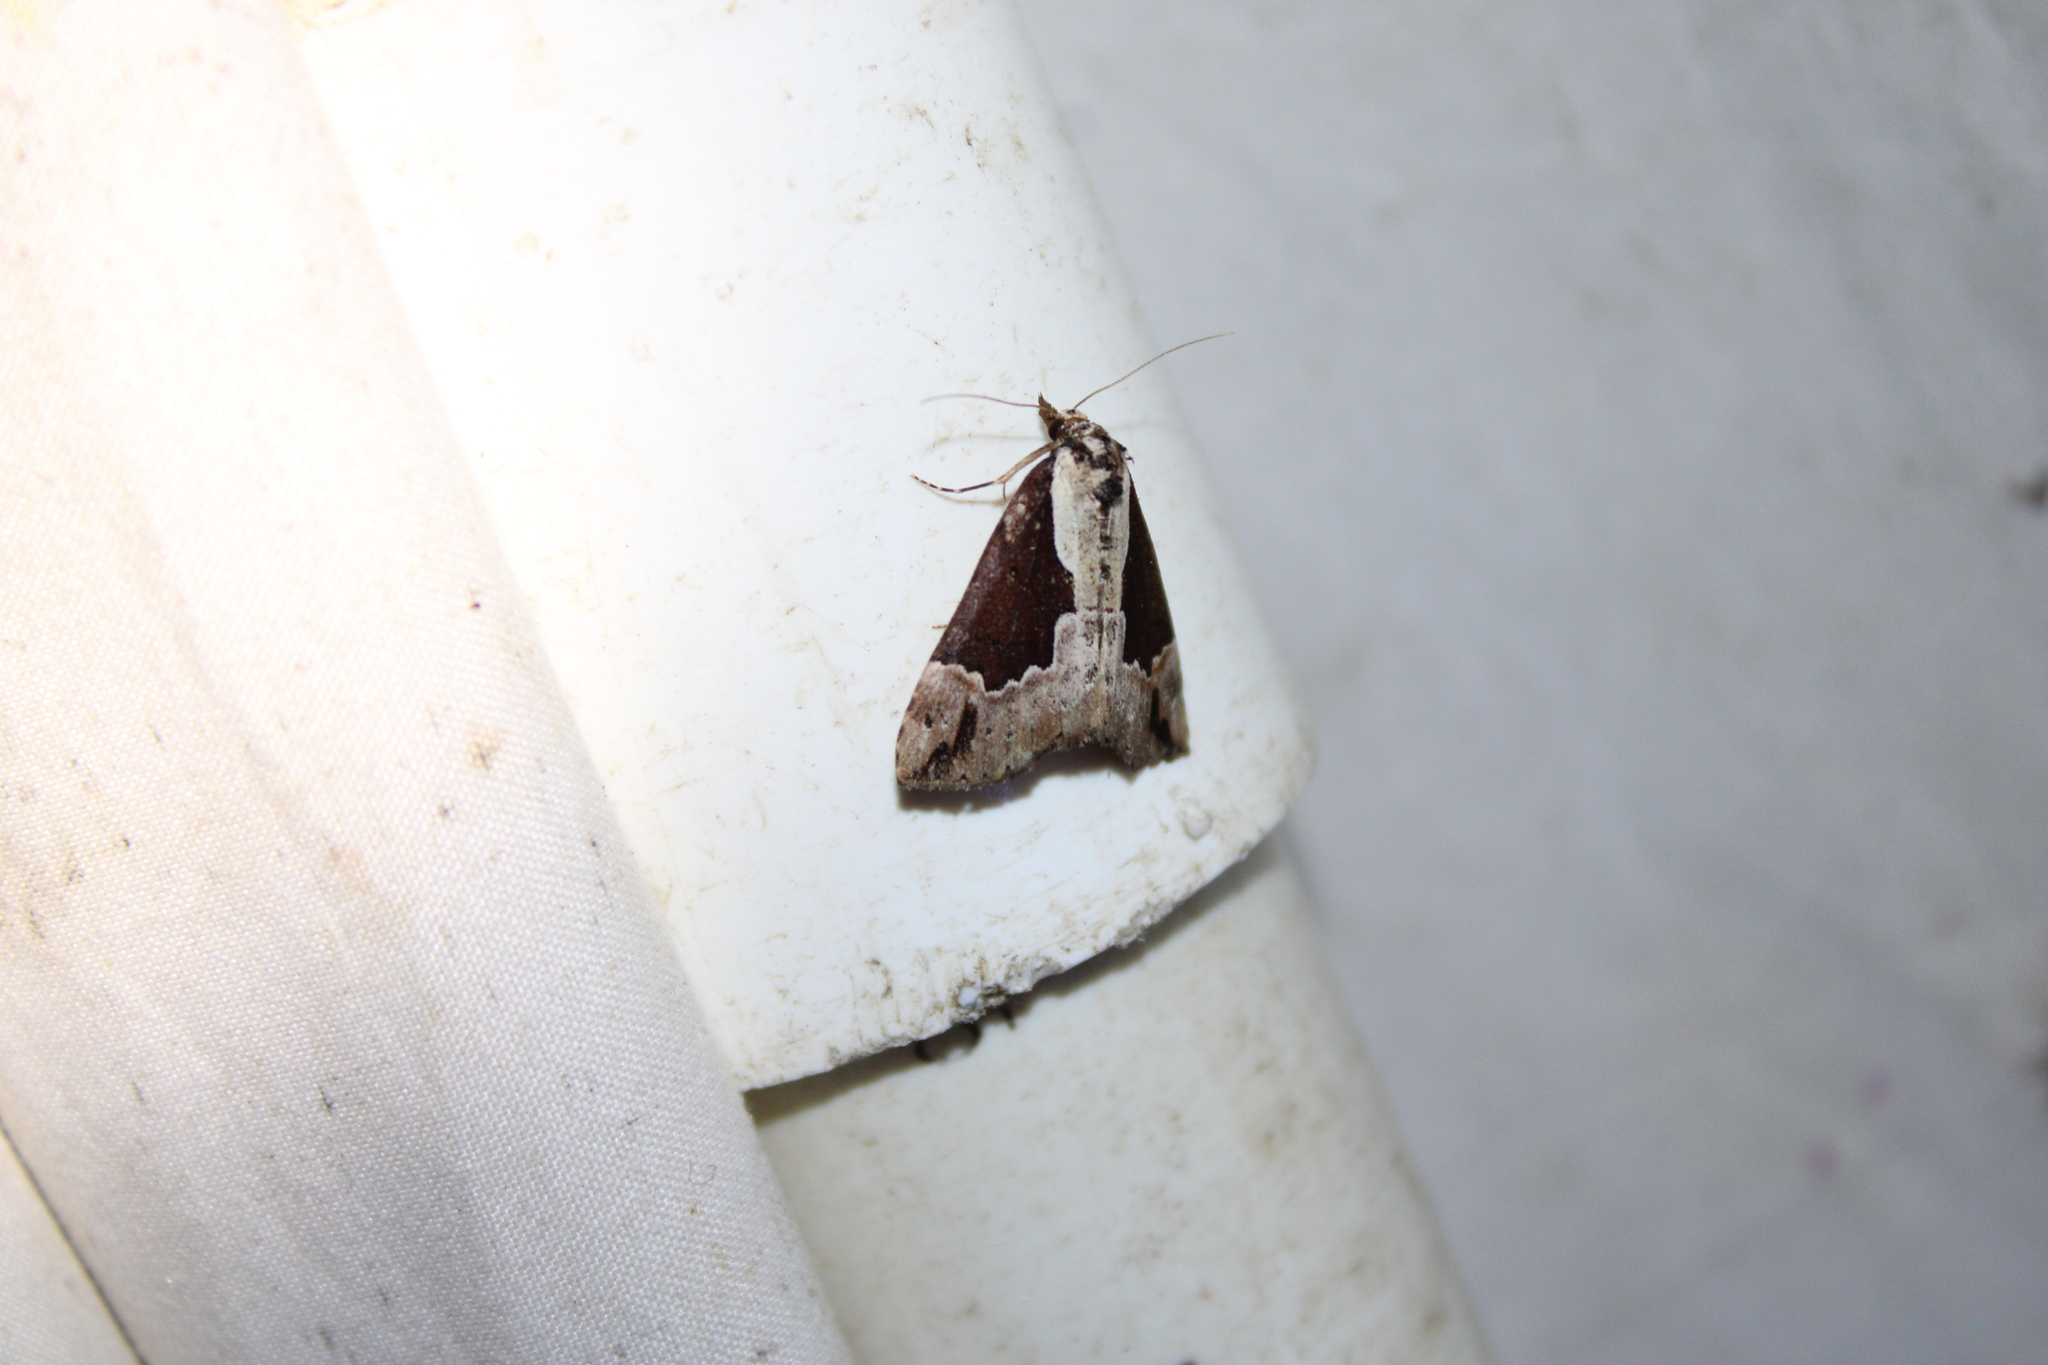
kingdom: Animalia
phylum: Arthropoda
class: Insecta
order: Lepidoptera
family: Erebidae
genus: Hypena
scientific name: Hypena baltimoralis
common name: Baltimore snout
